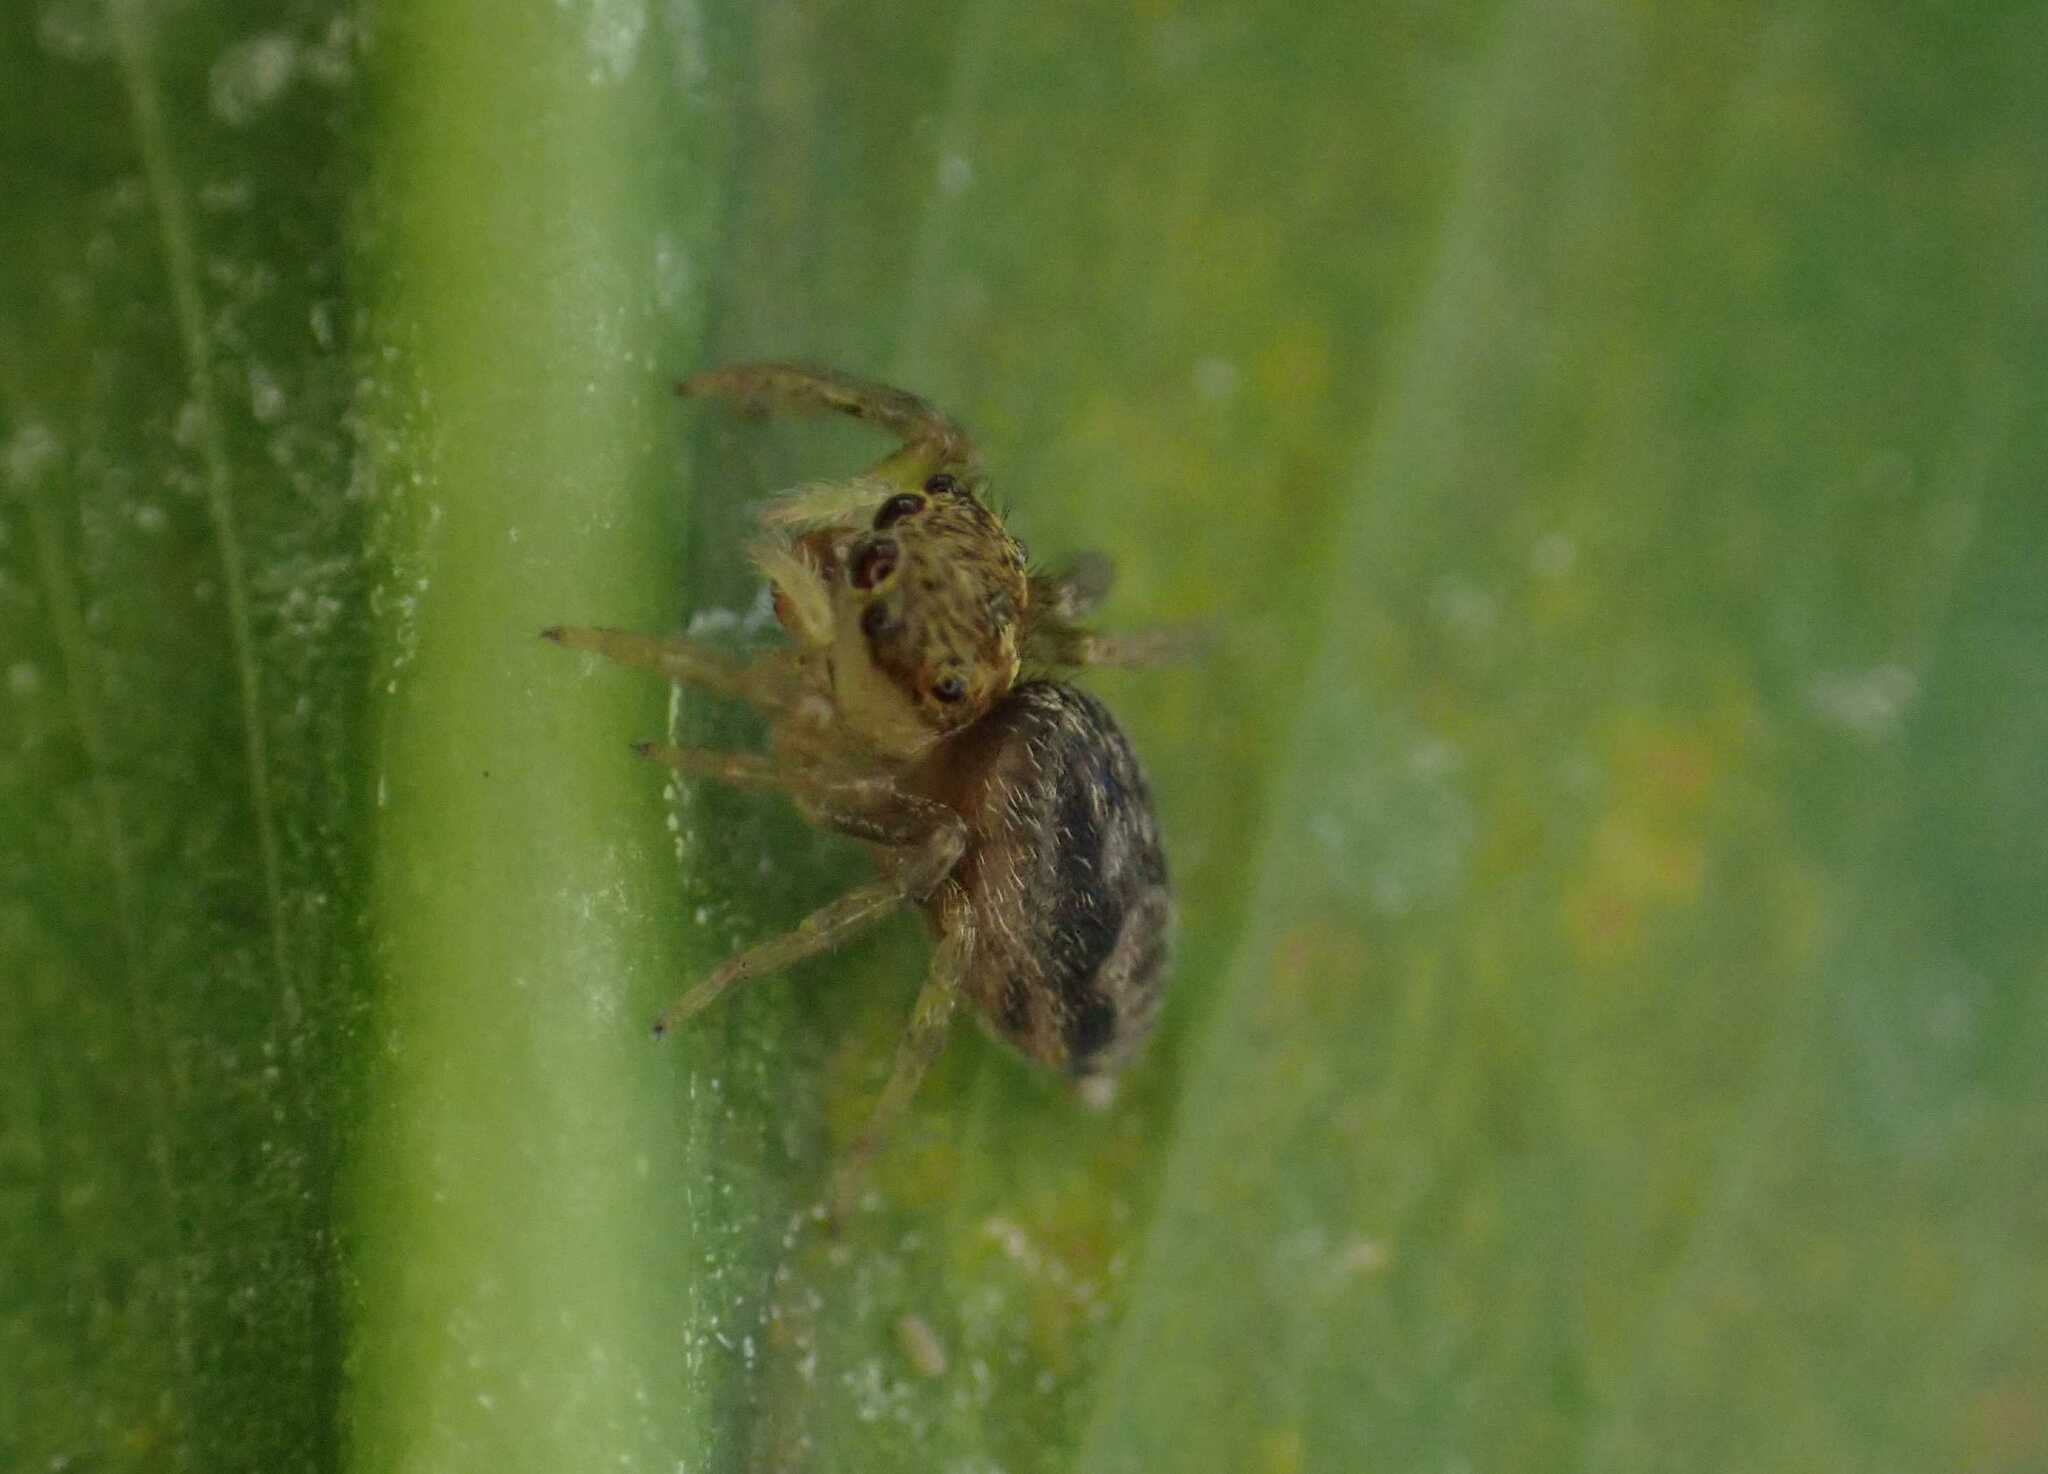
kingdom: Animalia
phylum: Arthropoda
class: Arachnida
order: Araneae
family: Salticidae
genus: Hasarius
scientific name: Hasarius adansoni
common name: Jumping spider
